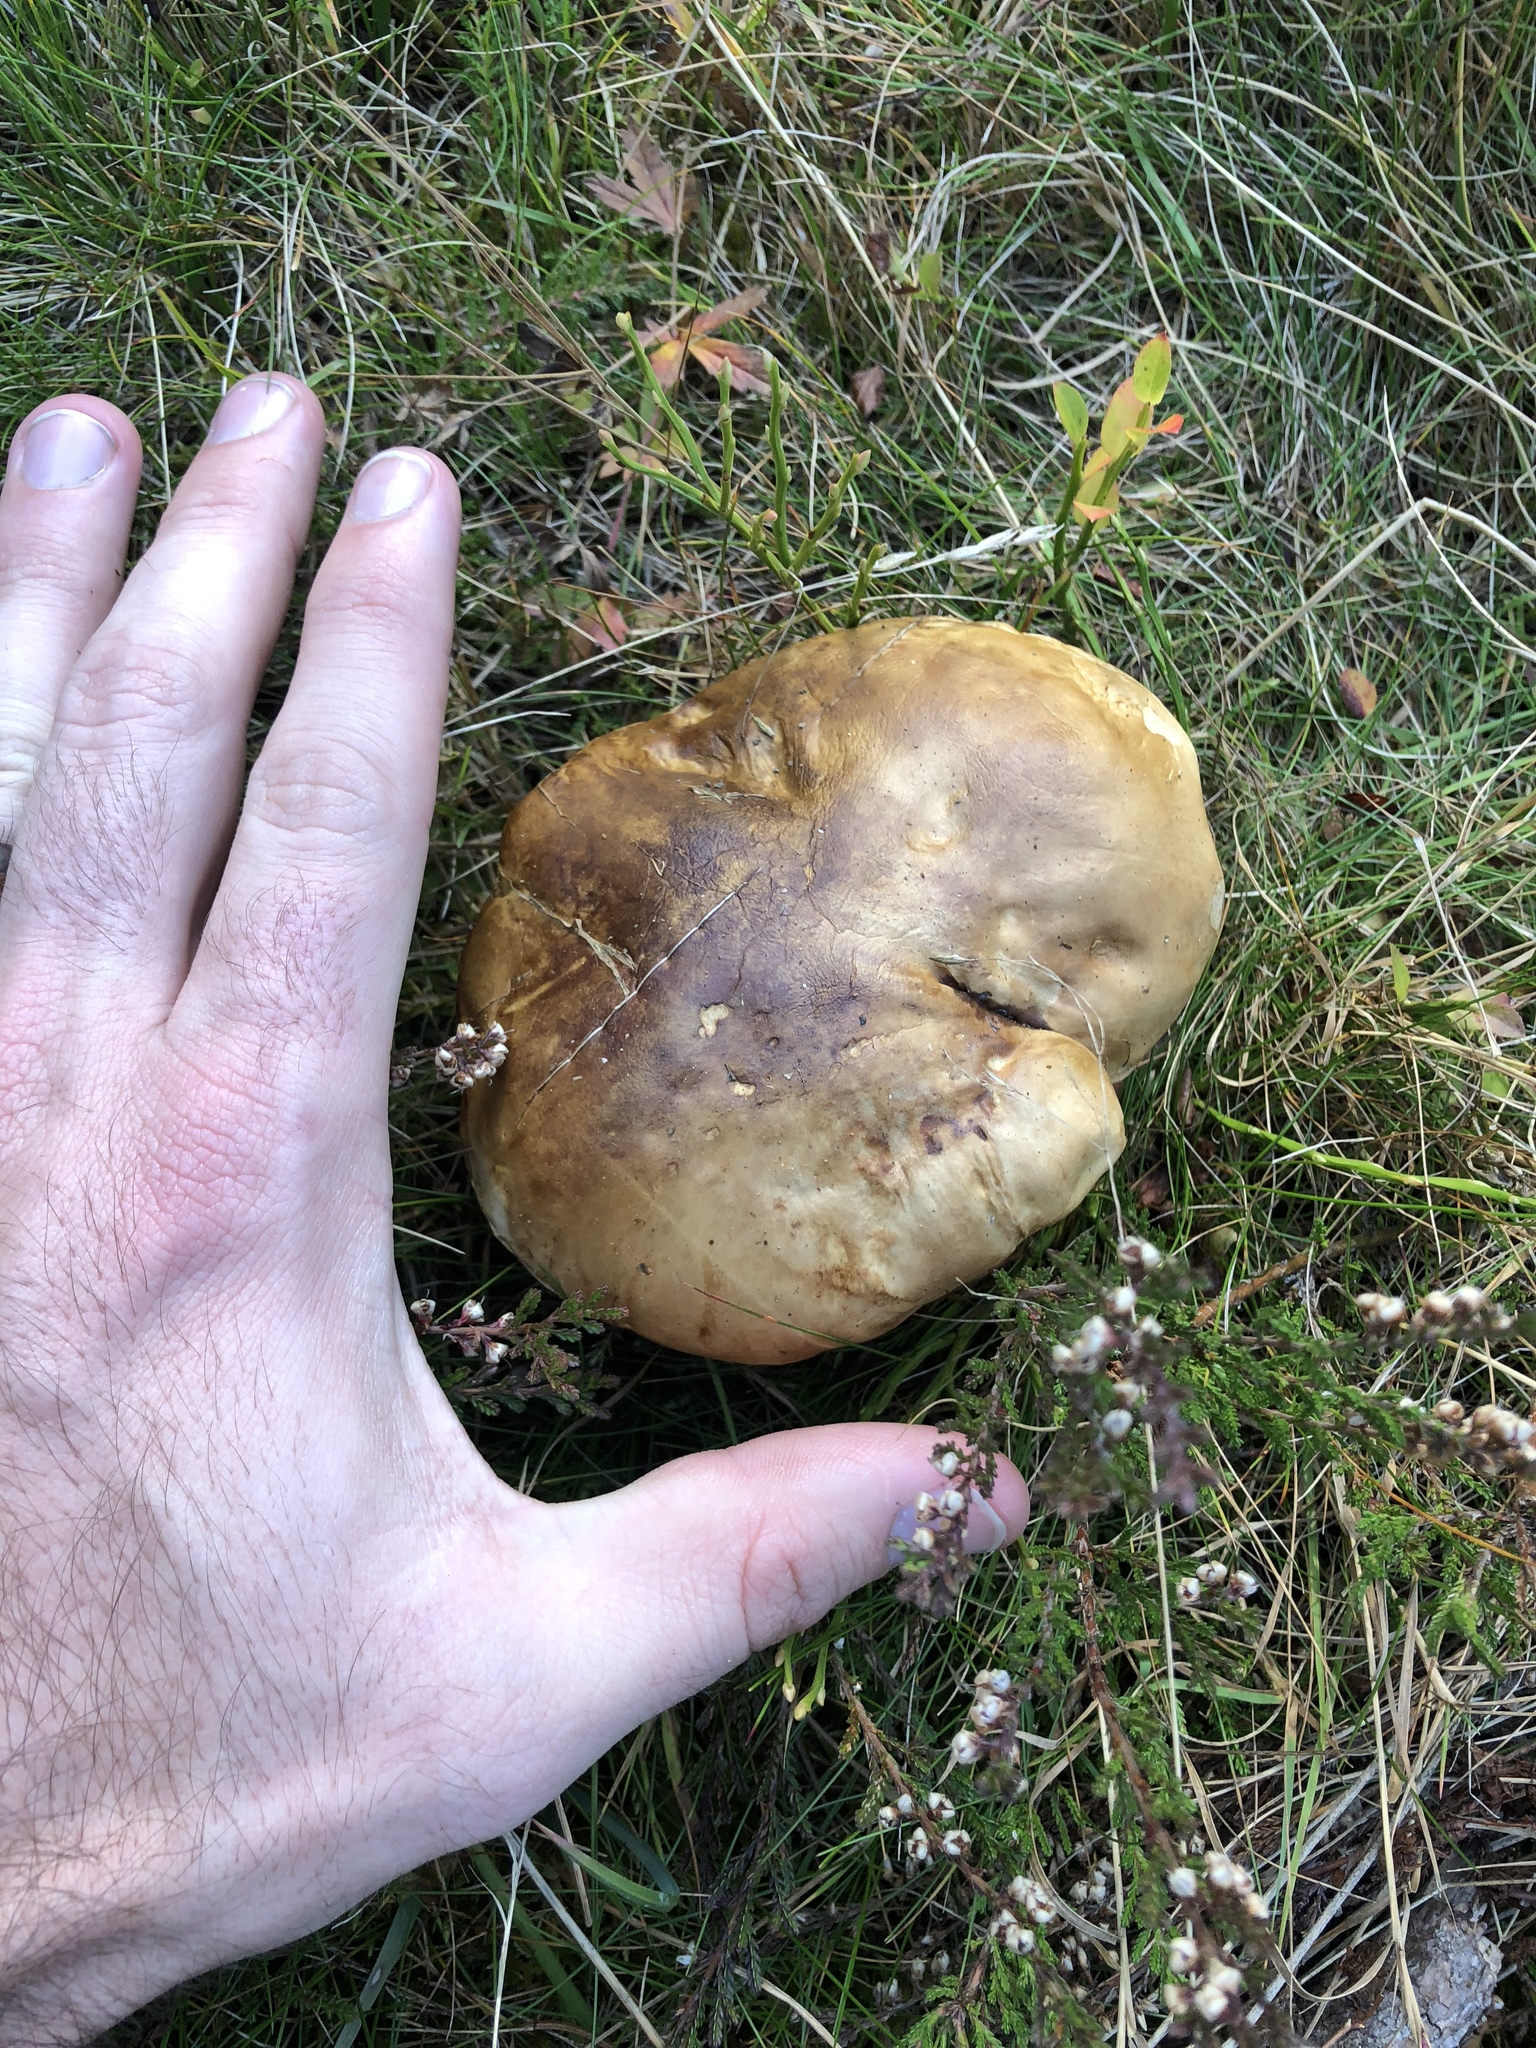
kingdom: Fungi
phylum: Basidiomycota
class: Agaricomycetes
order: Boletales
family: Boletaceae
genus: Boletus
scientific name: Boletus edulis
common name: Cep
